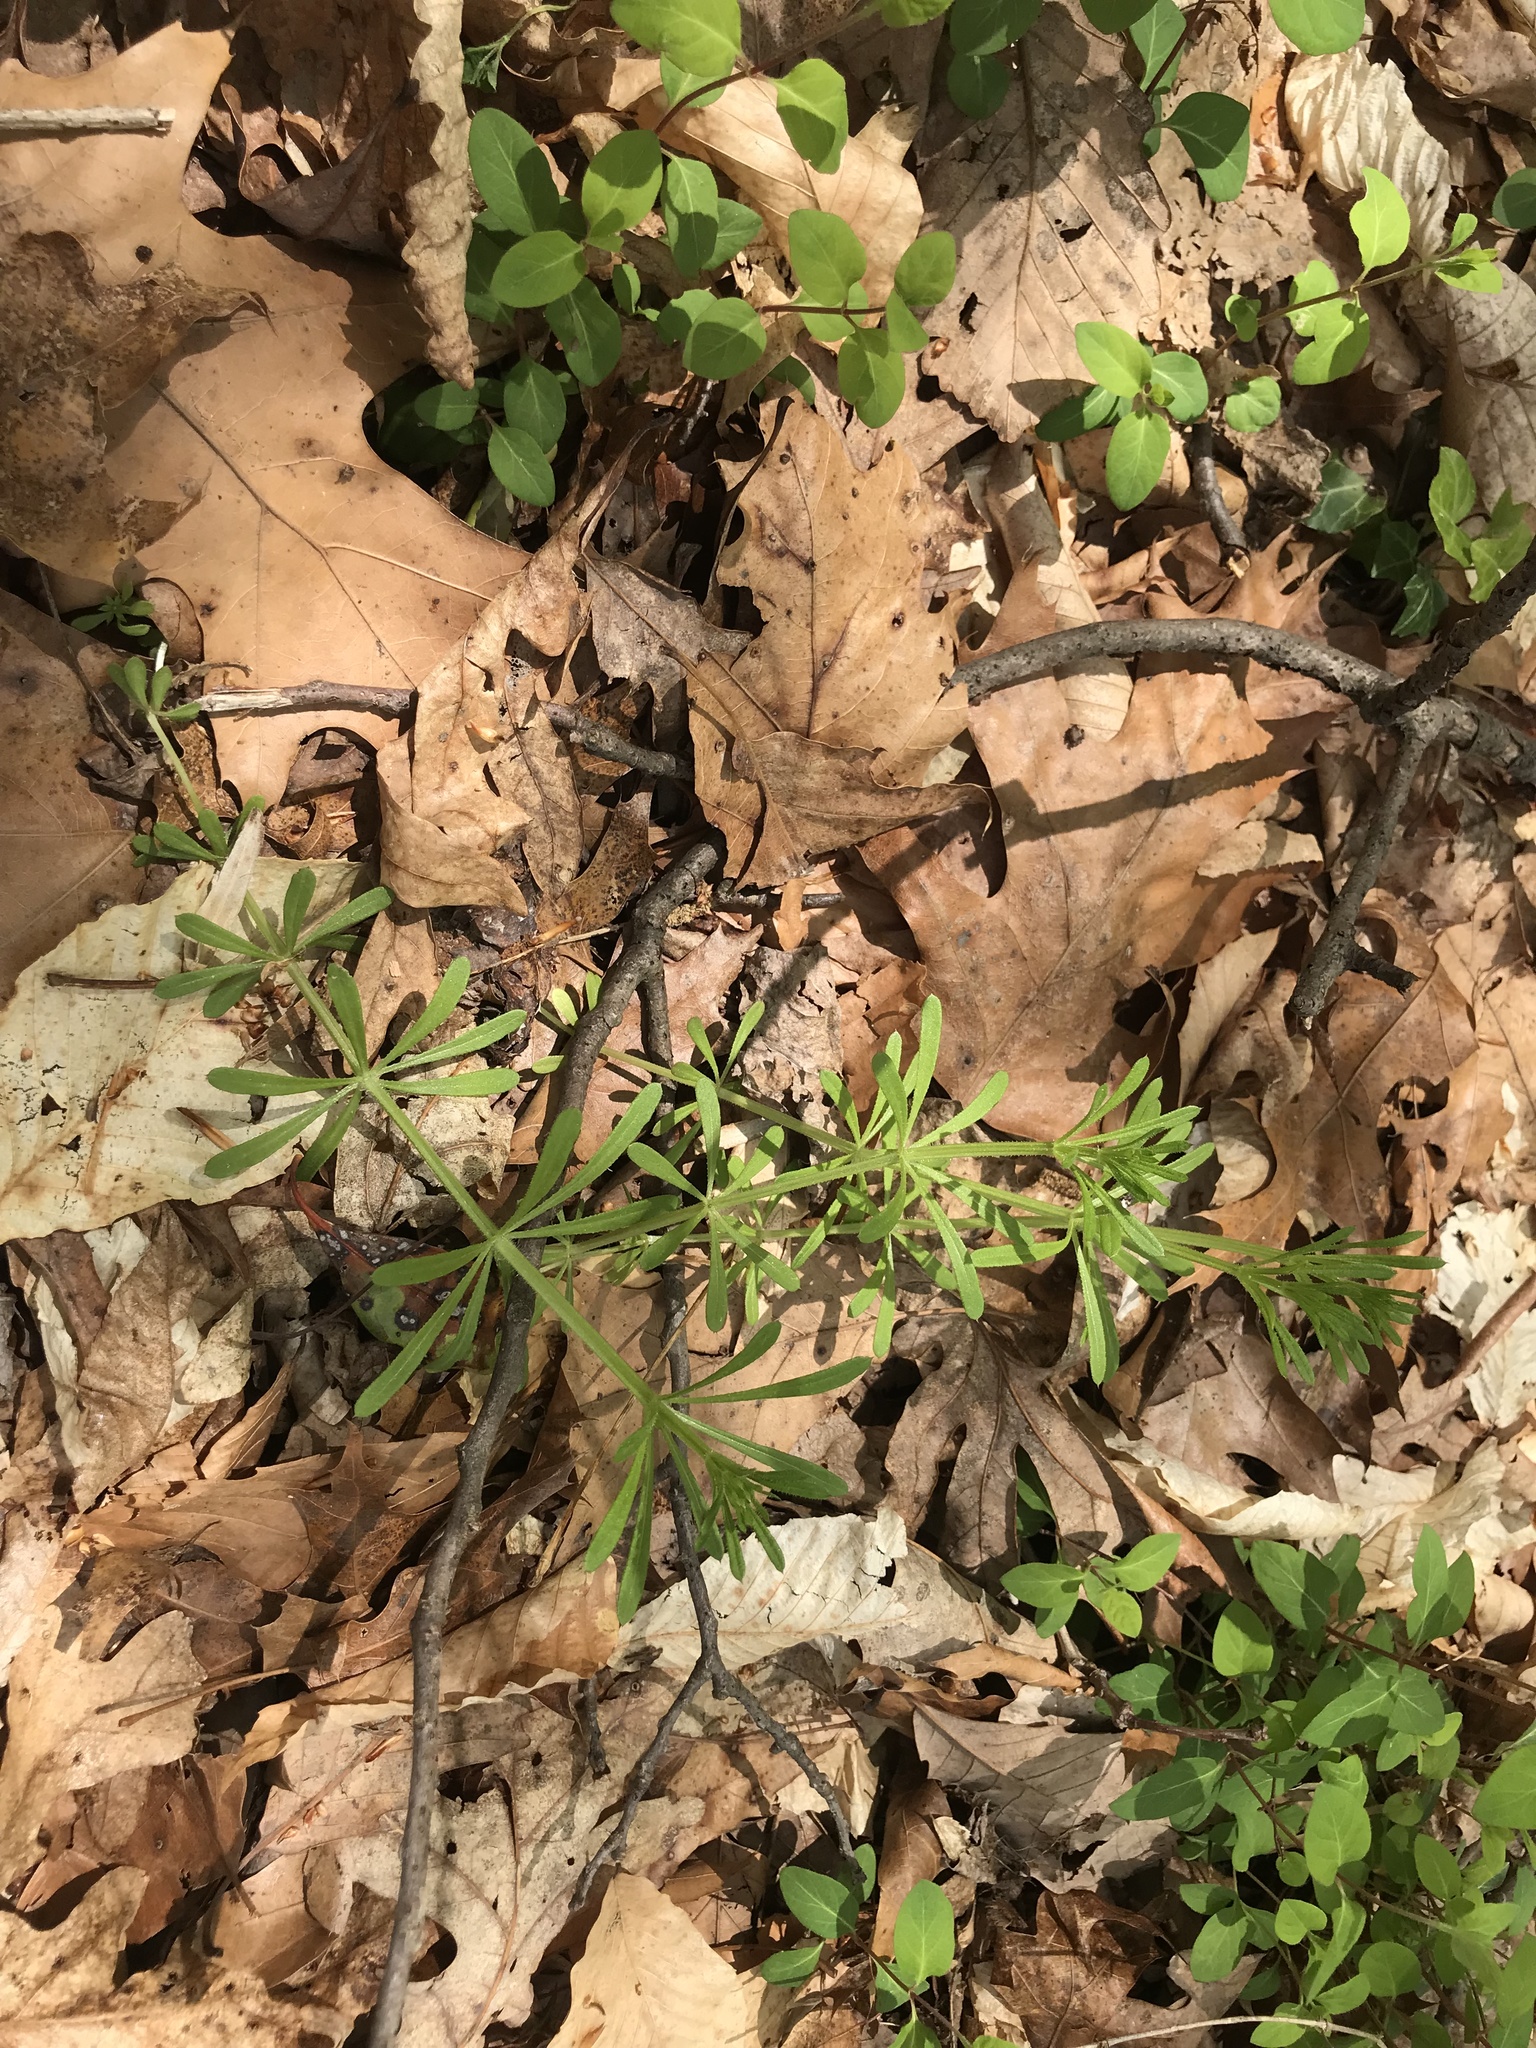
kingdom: Plantae
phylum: Tracheophyta
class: Magnoliopsida
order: Gentianales
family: Rubiaceae
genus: Galium
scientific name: Galium aparine
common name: Cleavers
